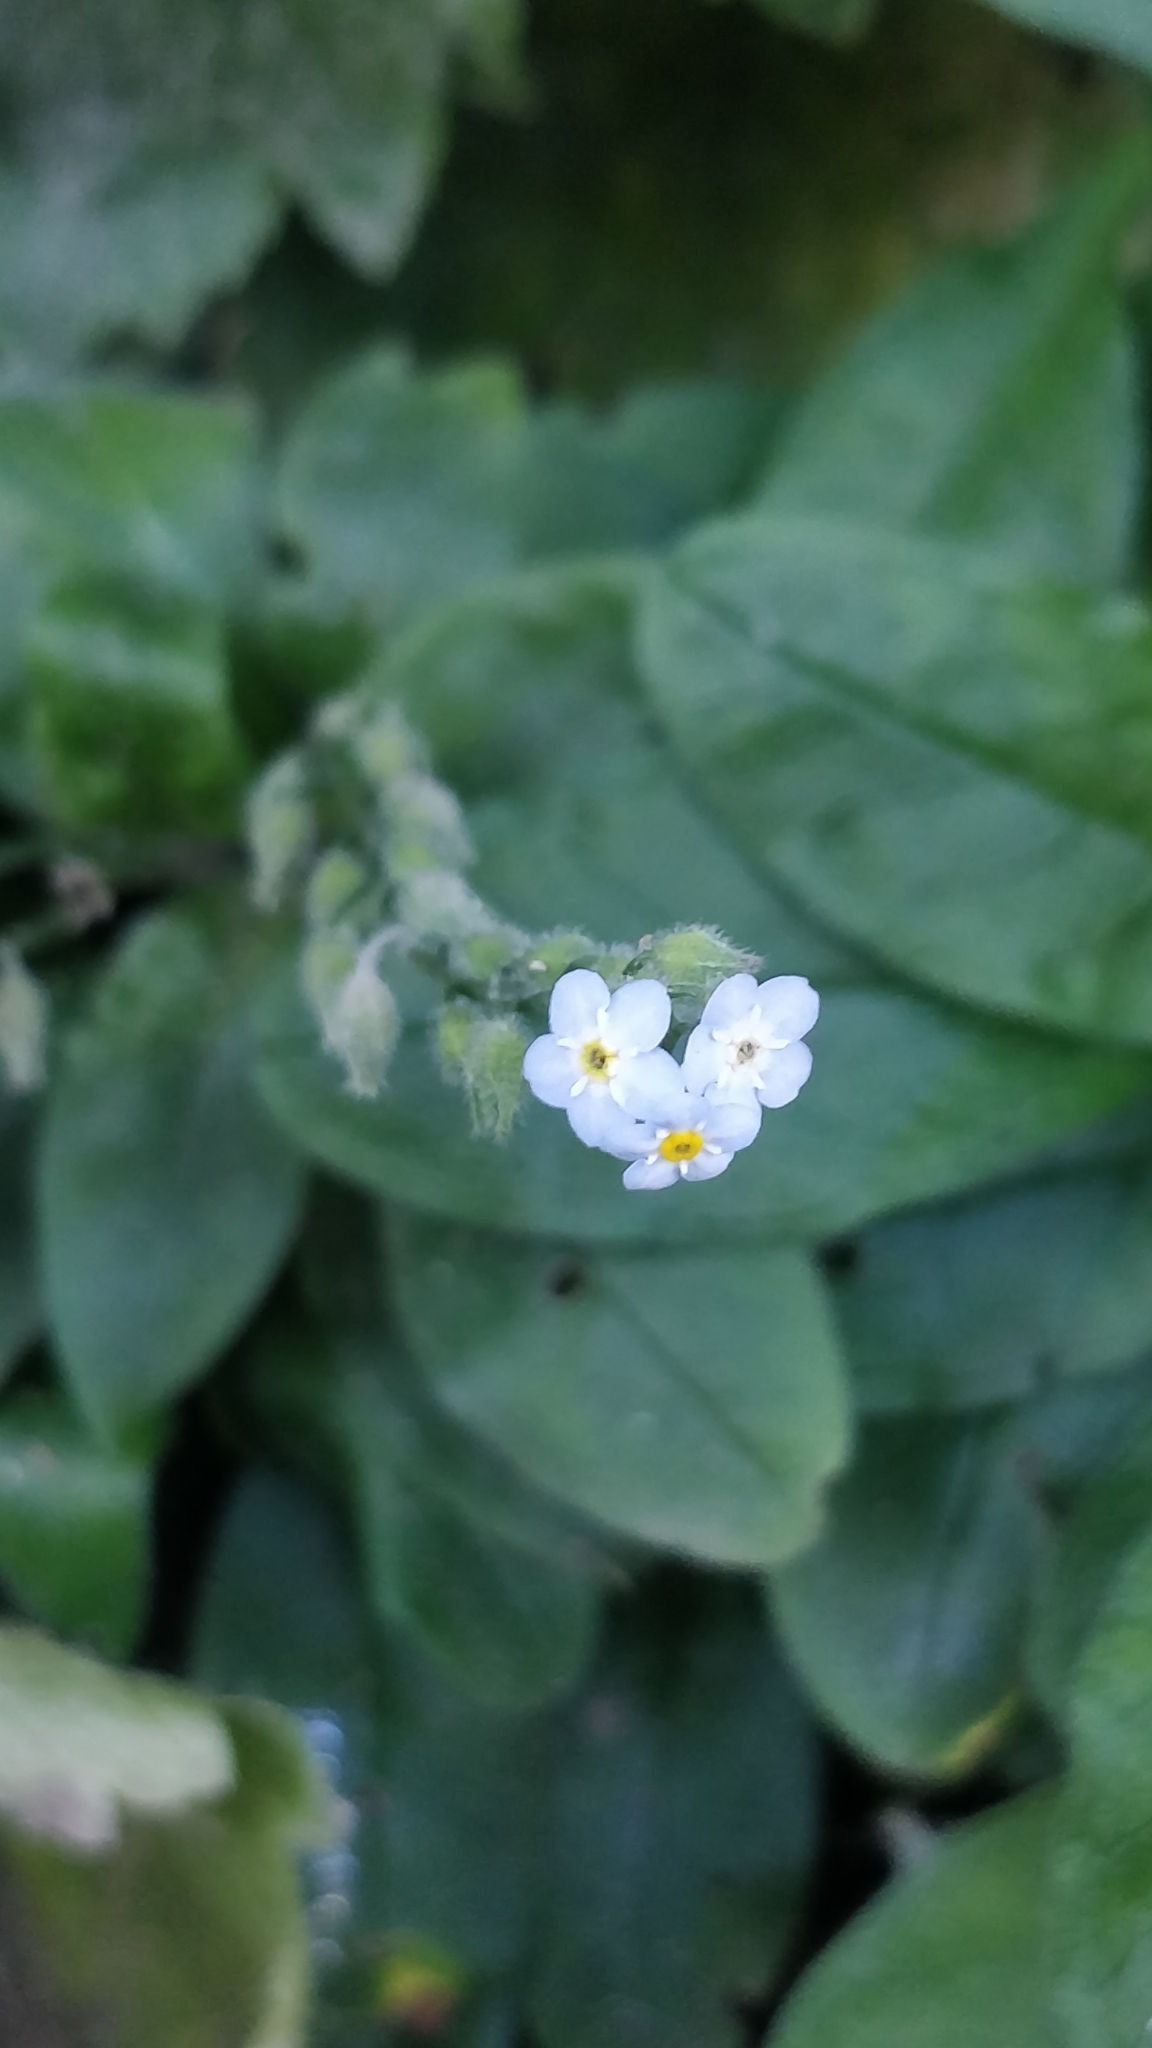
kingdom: Plantae
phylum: Tracheophyta
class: Magnoliopsida
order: Boraginales
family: Boraginaceae
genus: Myosotis
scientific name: Myosotis latifolia
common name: Broadleaf forget-me-not
